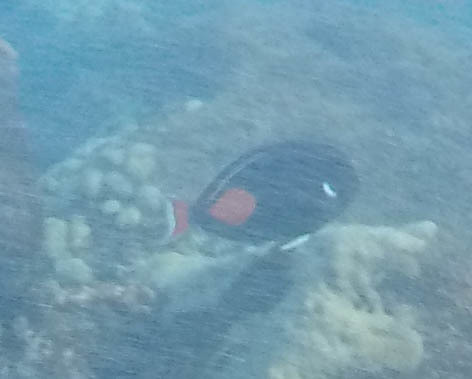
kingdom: Animalia
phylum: Chordata
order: Perciformes
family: Acanthuridae
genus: Acanthurus
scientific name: Acanthurus achilles
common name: Achilles tang
